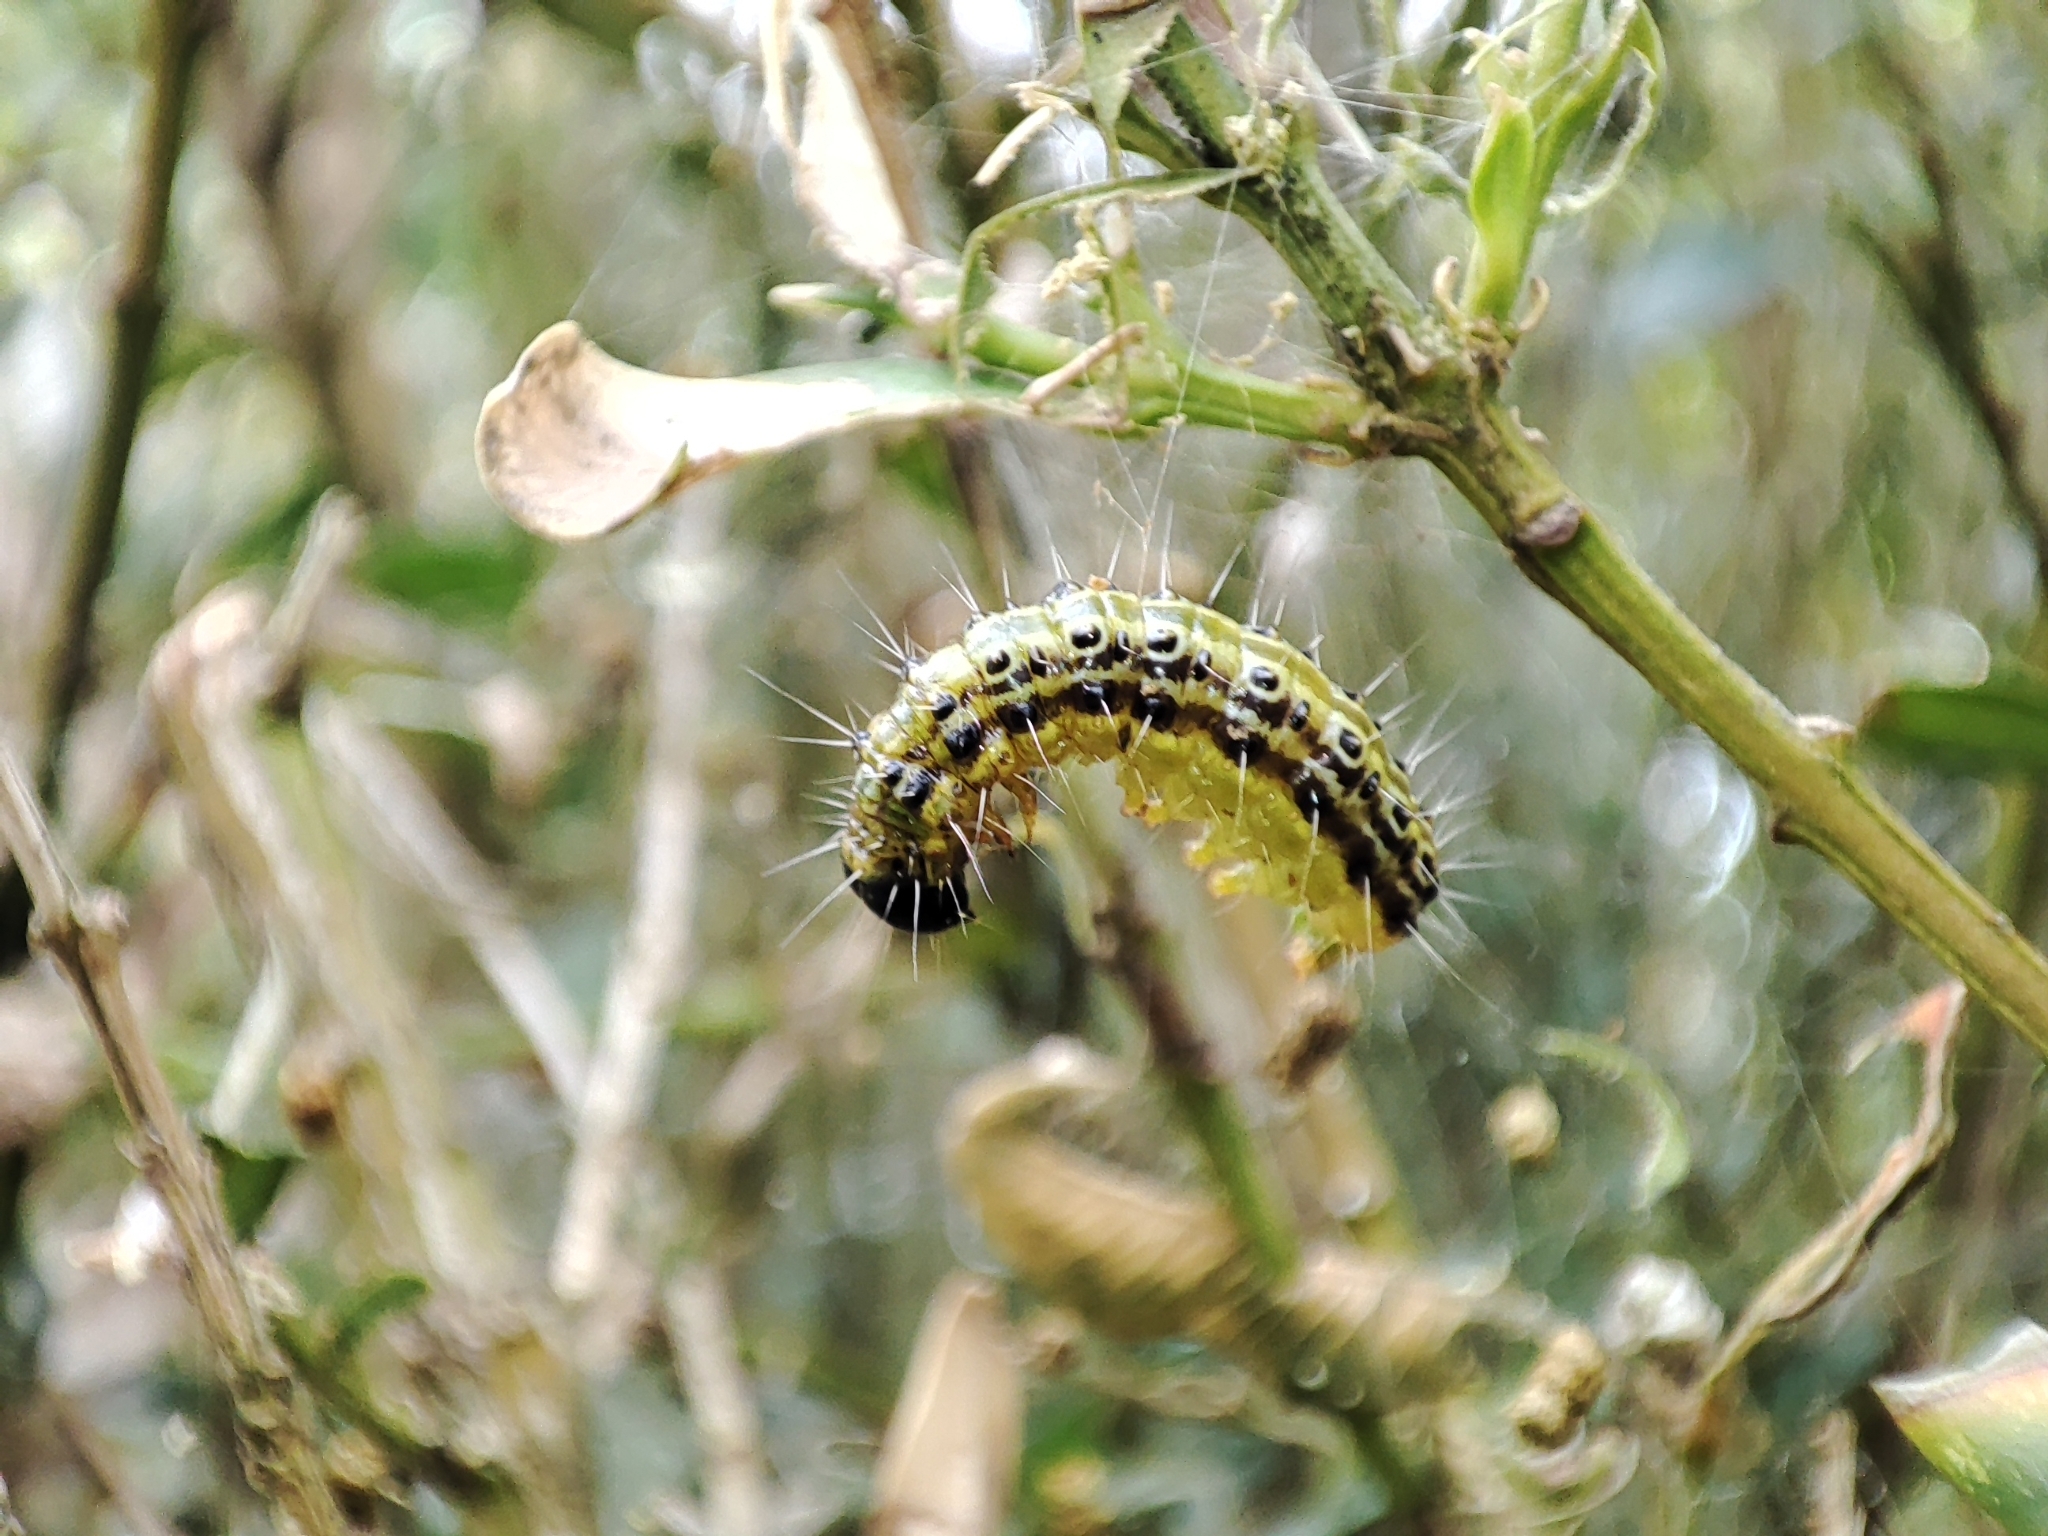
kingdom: Animalia
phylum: Arthropoda
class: Insecta
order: Lepidoptera
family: Crambidae
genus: Cydalima
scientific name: Cydalima perspectalis
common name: Box tree moth
